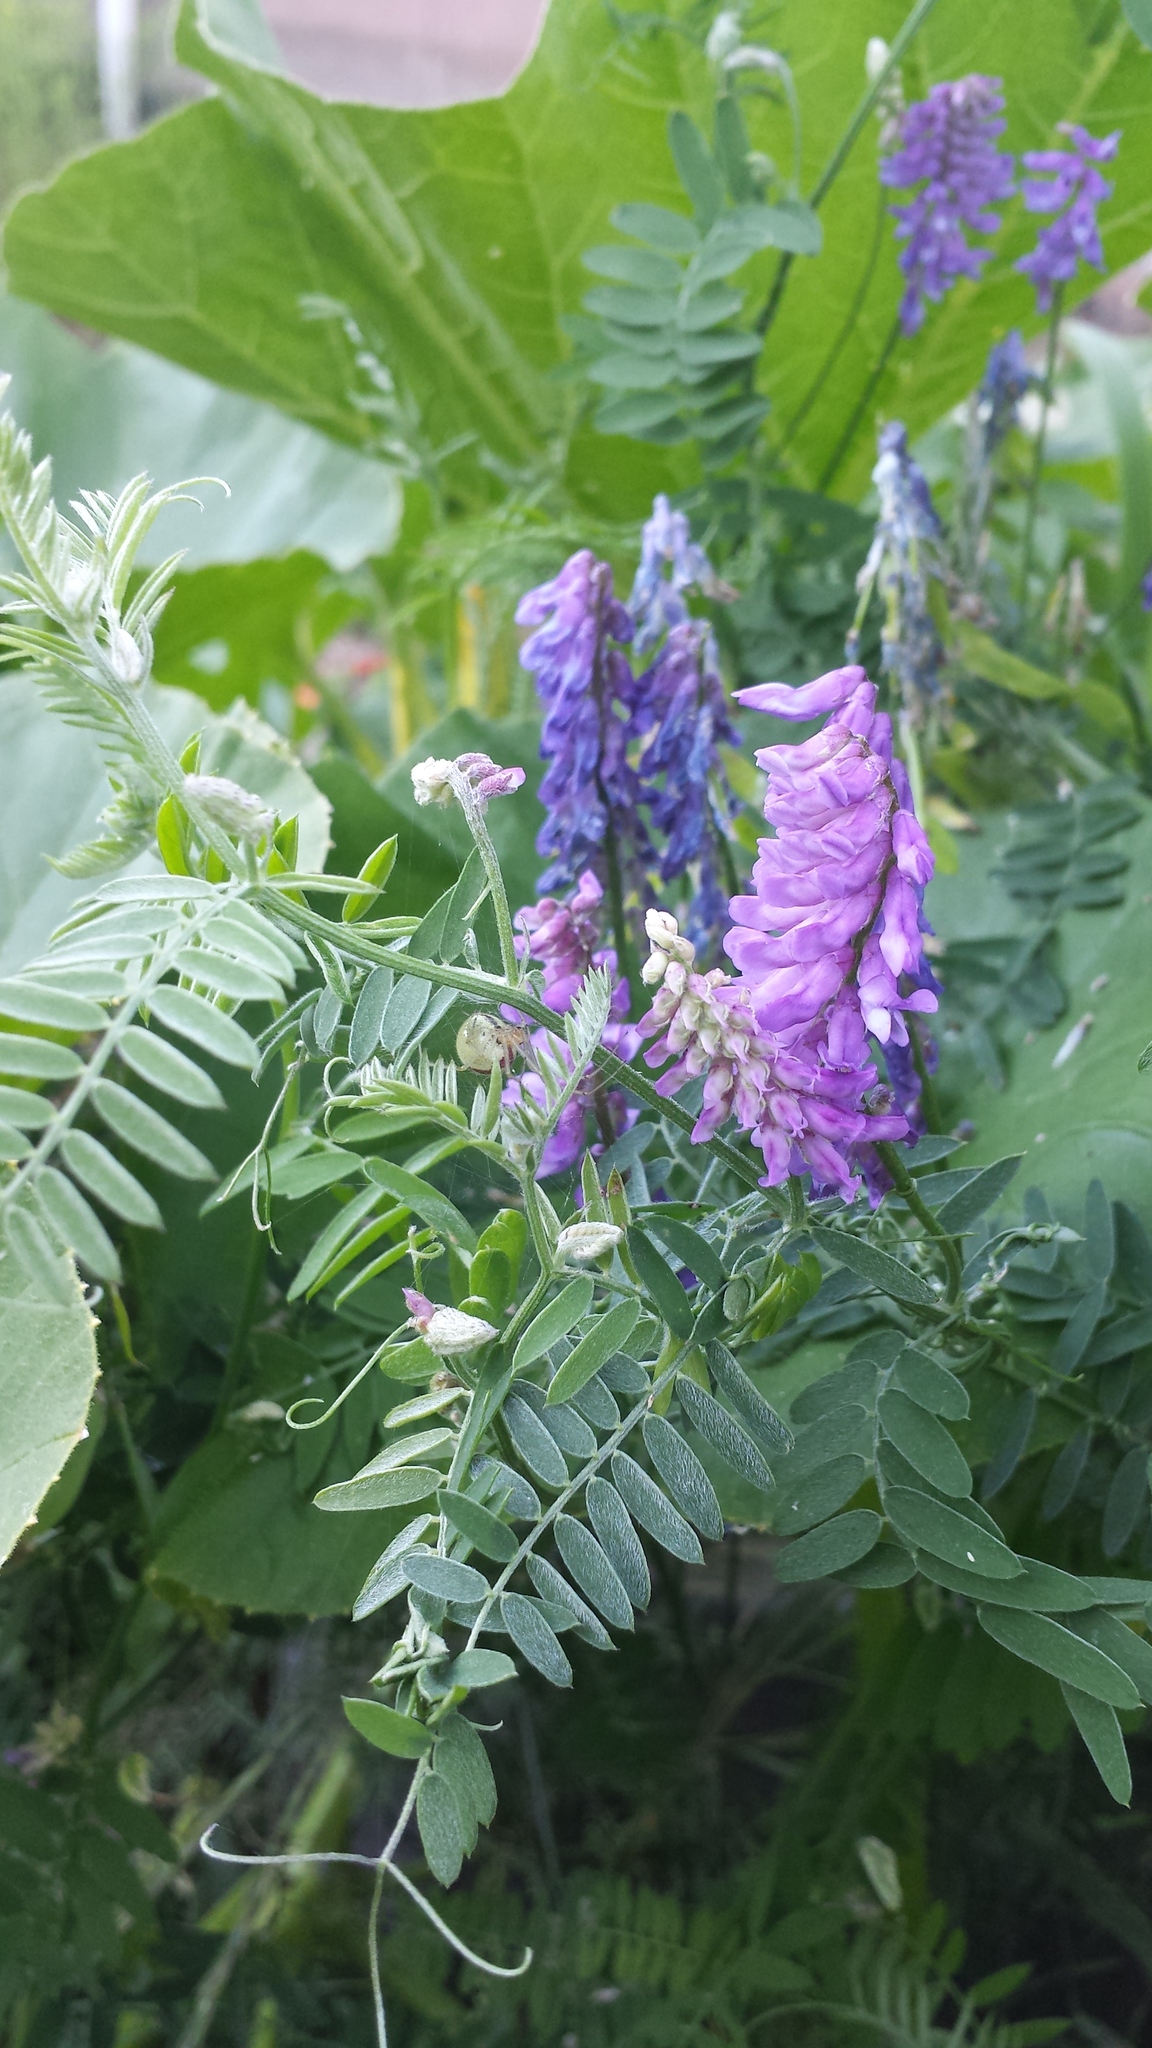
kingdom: Plantae
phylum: Tracheophyta
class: Magnoliopsida
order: Fabales
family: Fabaceae
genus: Vicia
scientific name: Vicia cracca
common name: Bird vetch
